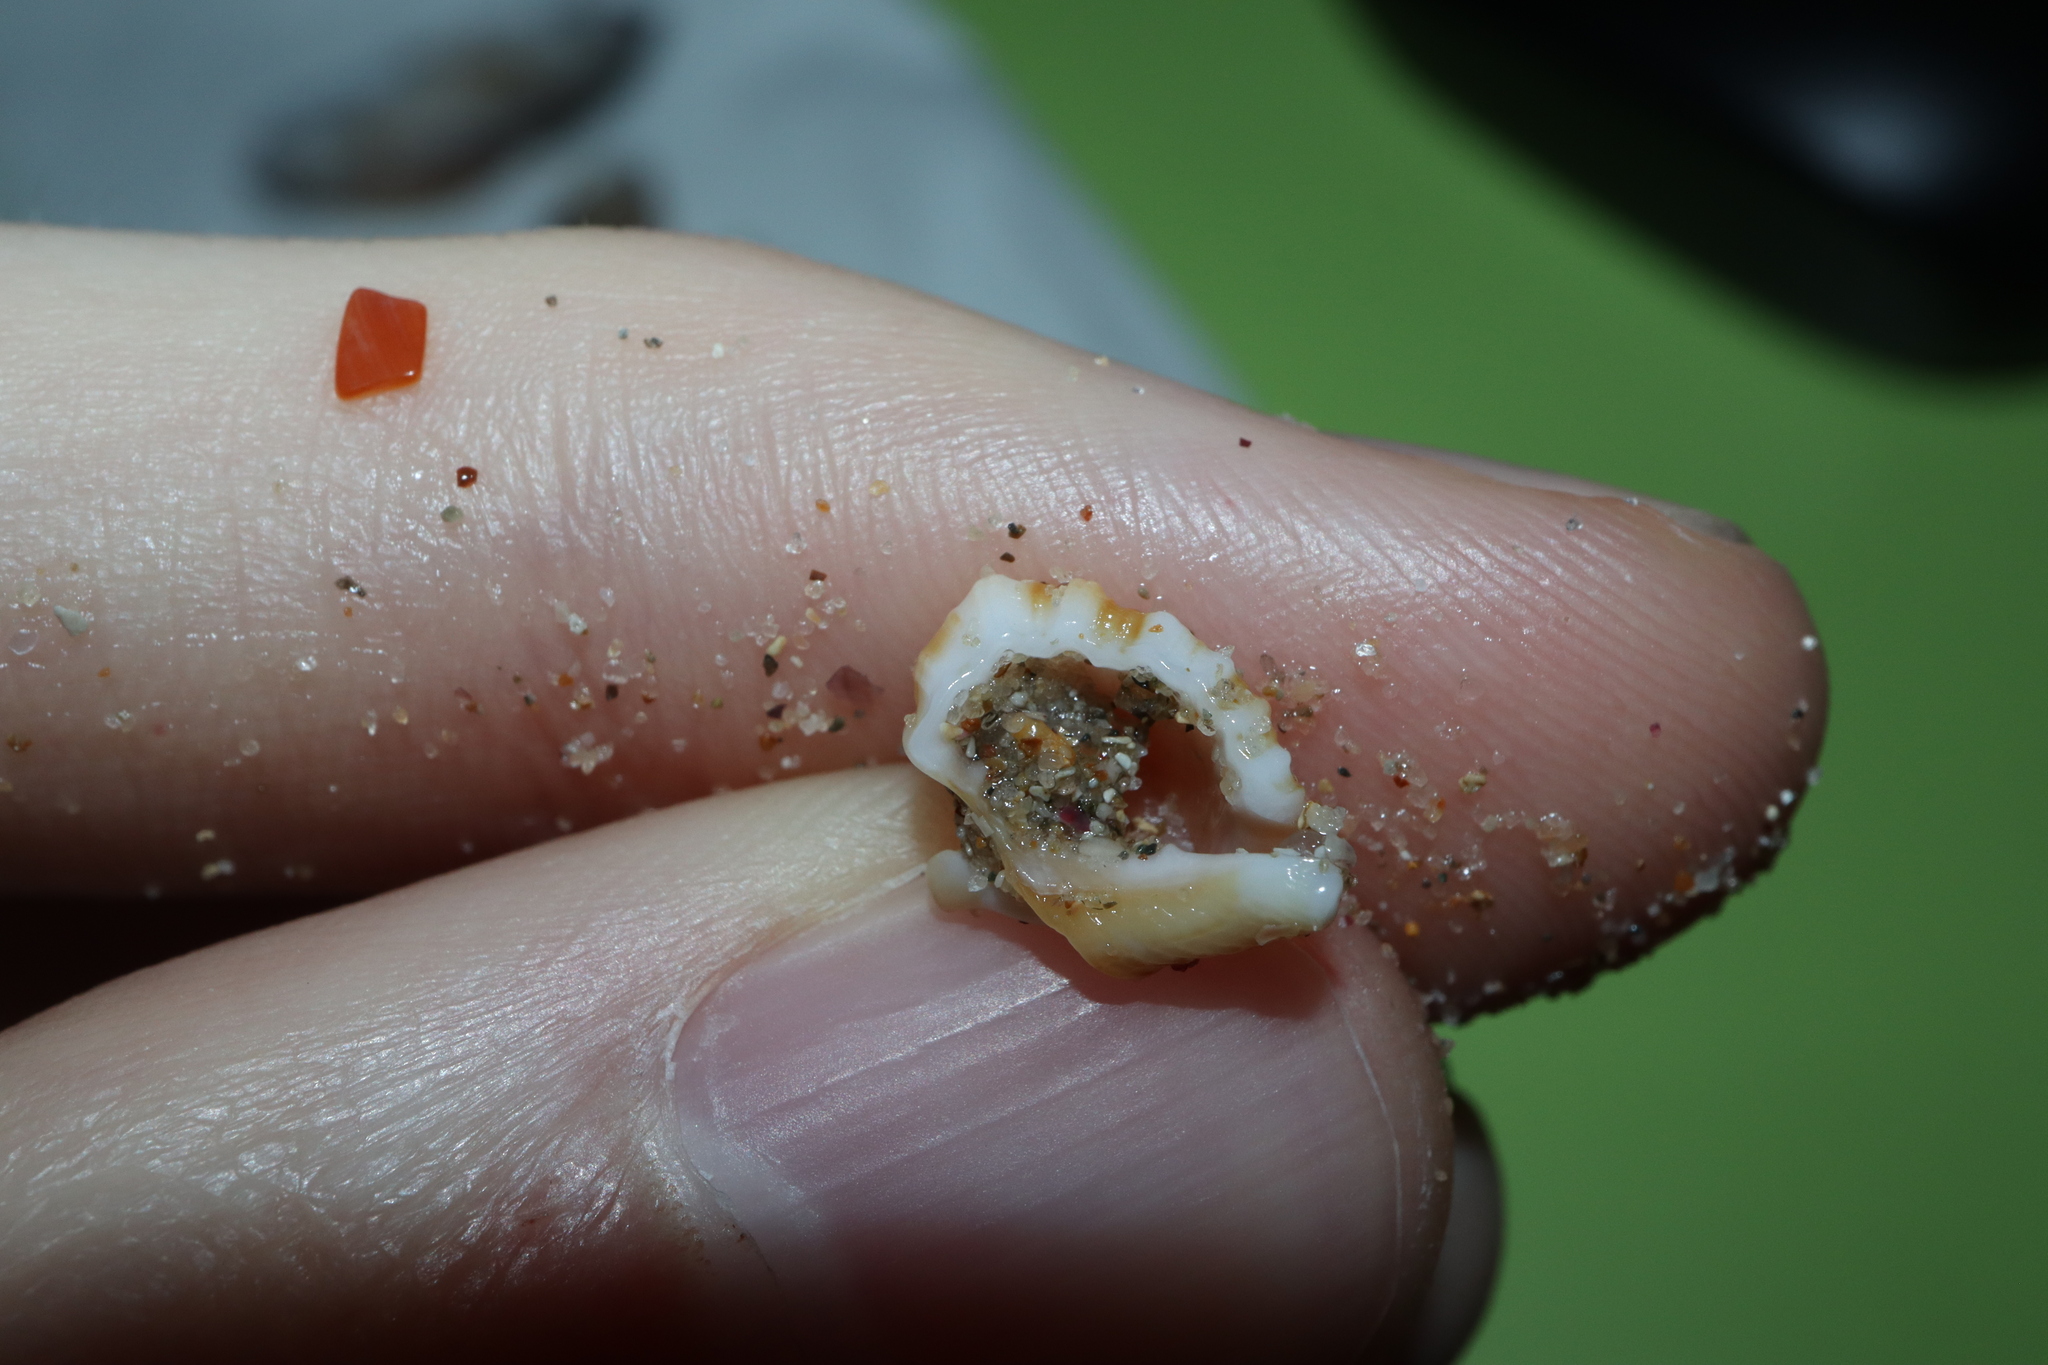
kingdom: Animalia
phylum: Mollusca
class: Gastropoda
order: Littorinimorpha
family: Cymatiidae
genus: Monoplex
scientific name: Monoplex exaratus
